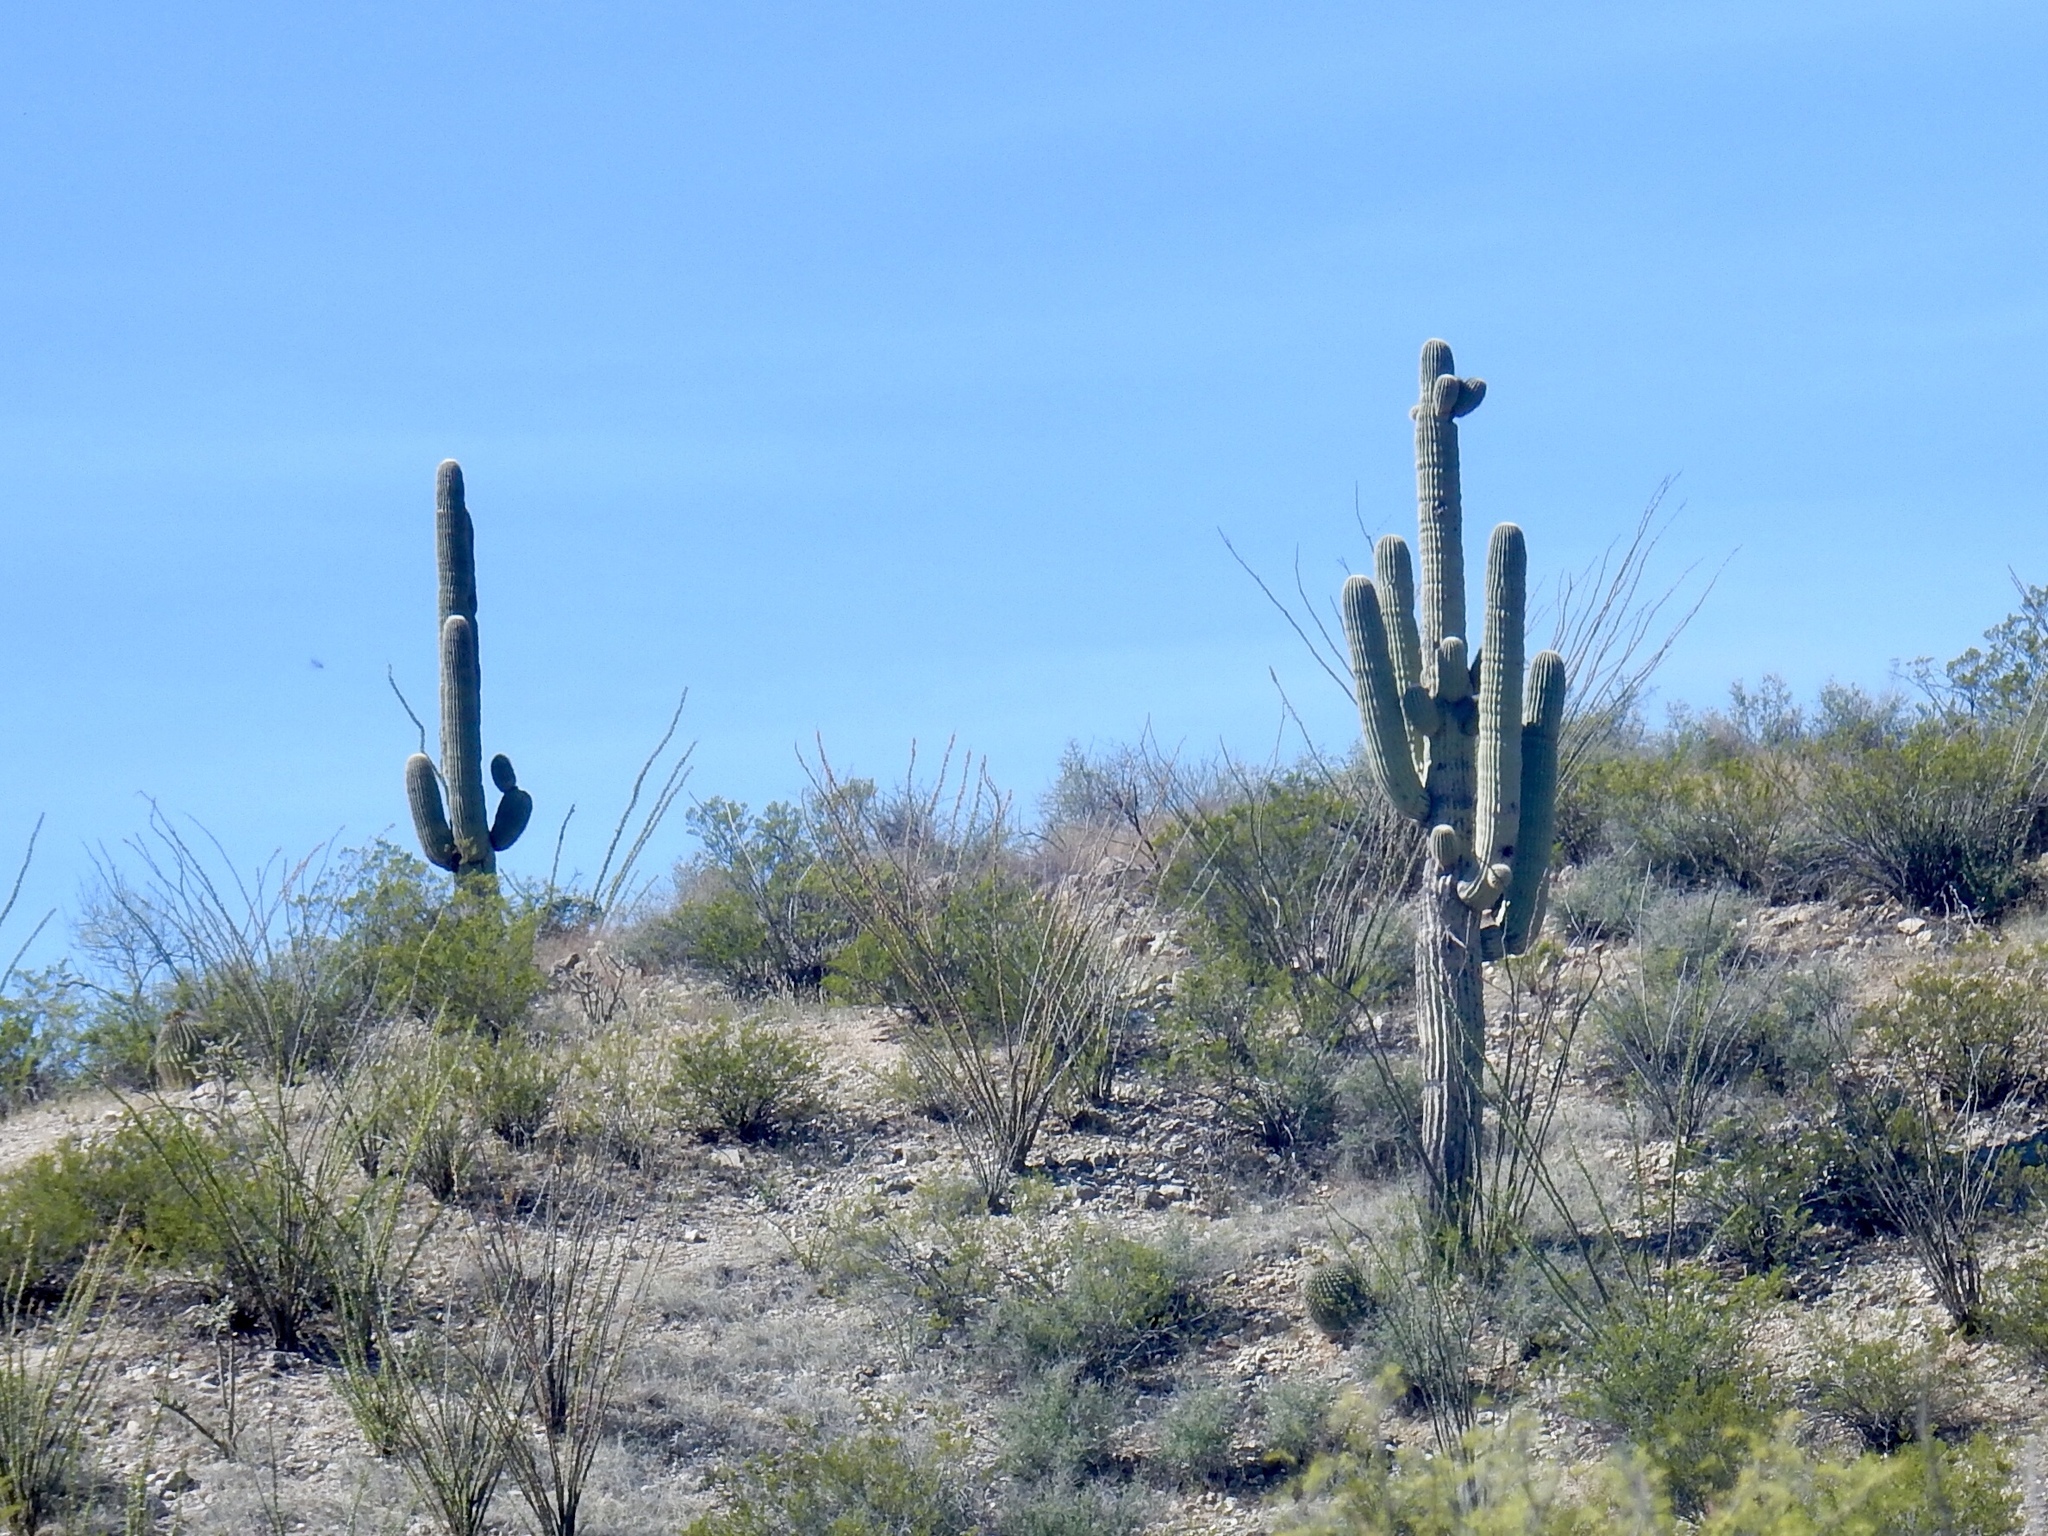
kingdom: Plantae
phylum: Tracheophyta
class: Magnoliopsida
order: Caryophyllales
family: Cactaceae
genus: Carnegiea
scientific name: Carnegiea gigantea
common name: Saguaro
